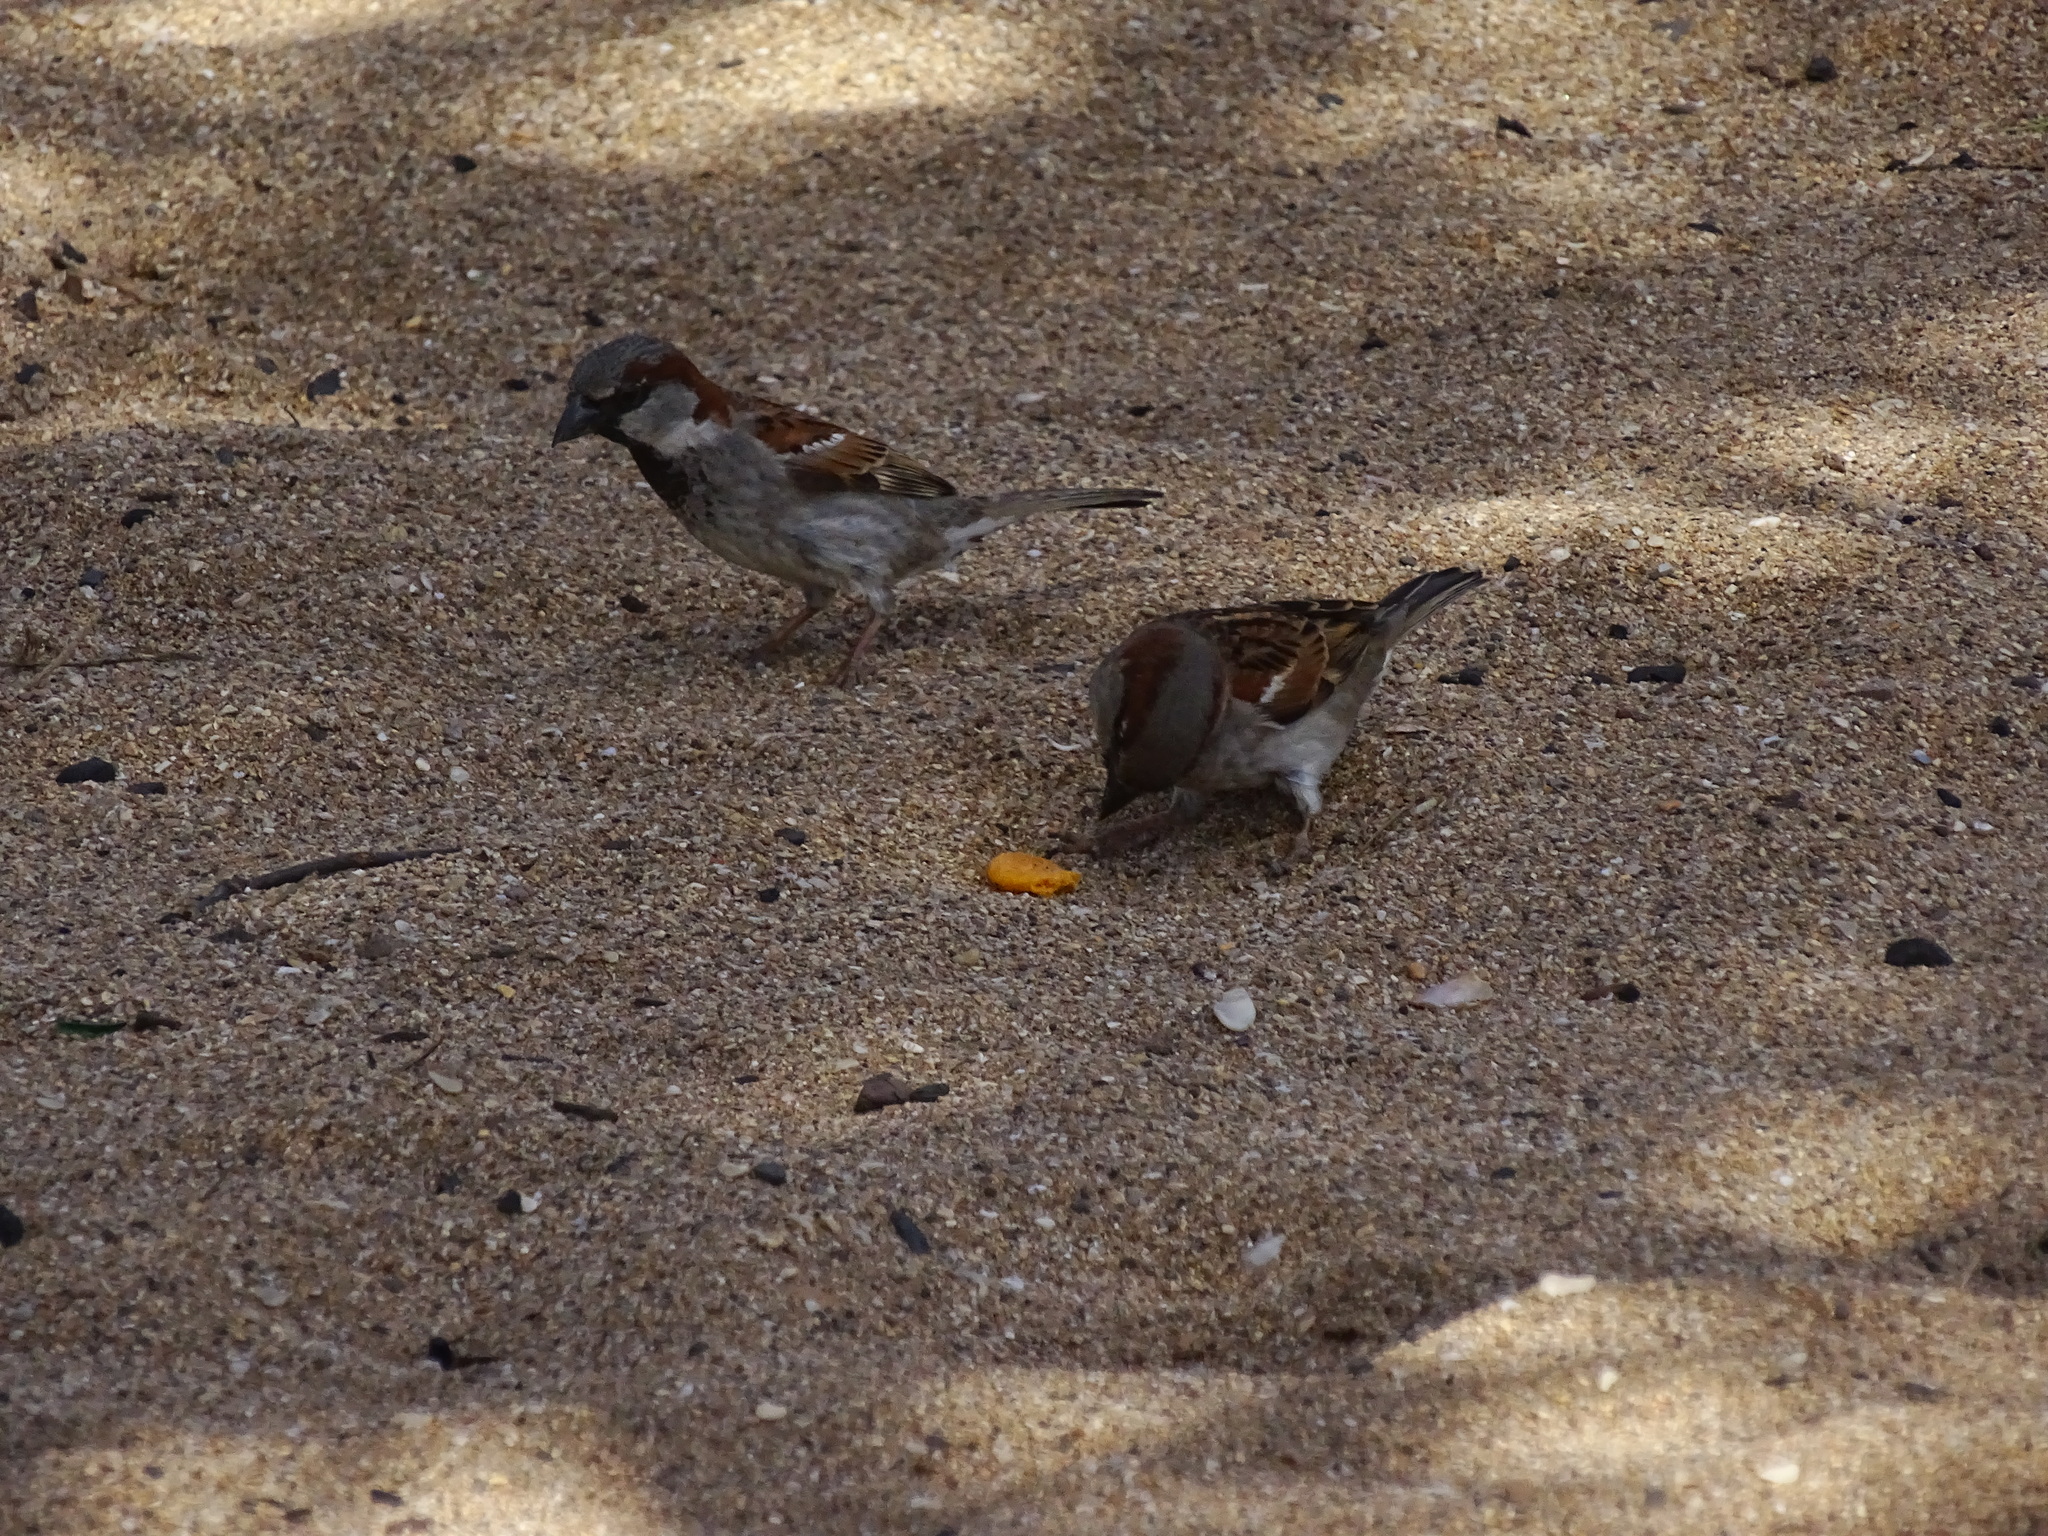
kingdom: Animalia
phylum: Chordata
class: Aves
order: Passeriformes
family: Passeridae
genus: Passer
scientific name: Passer domesticus
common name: House sparrow
